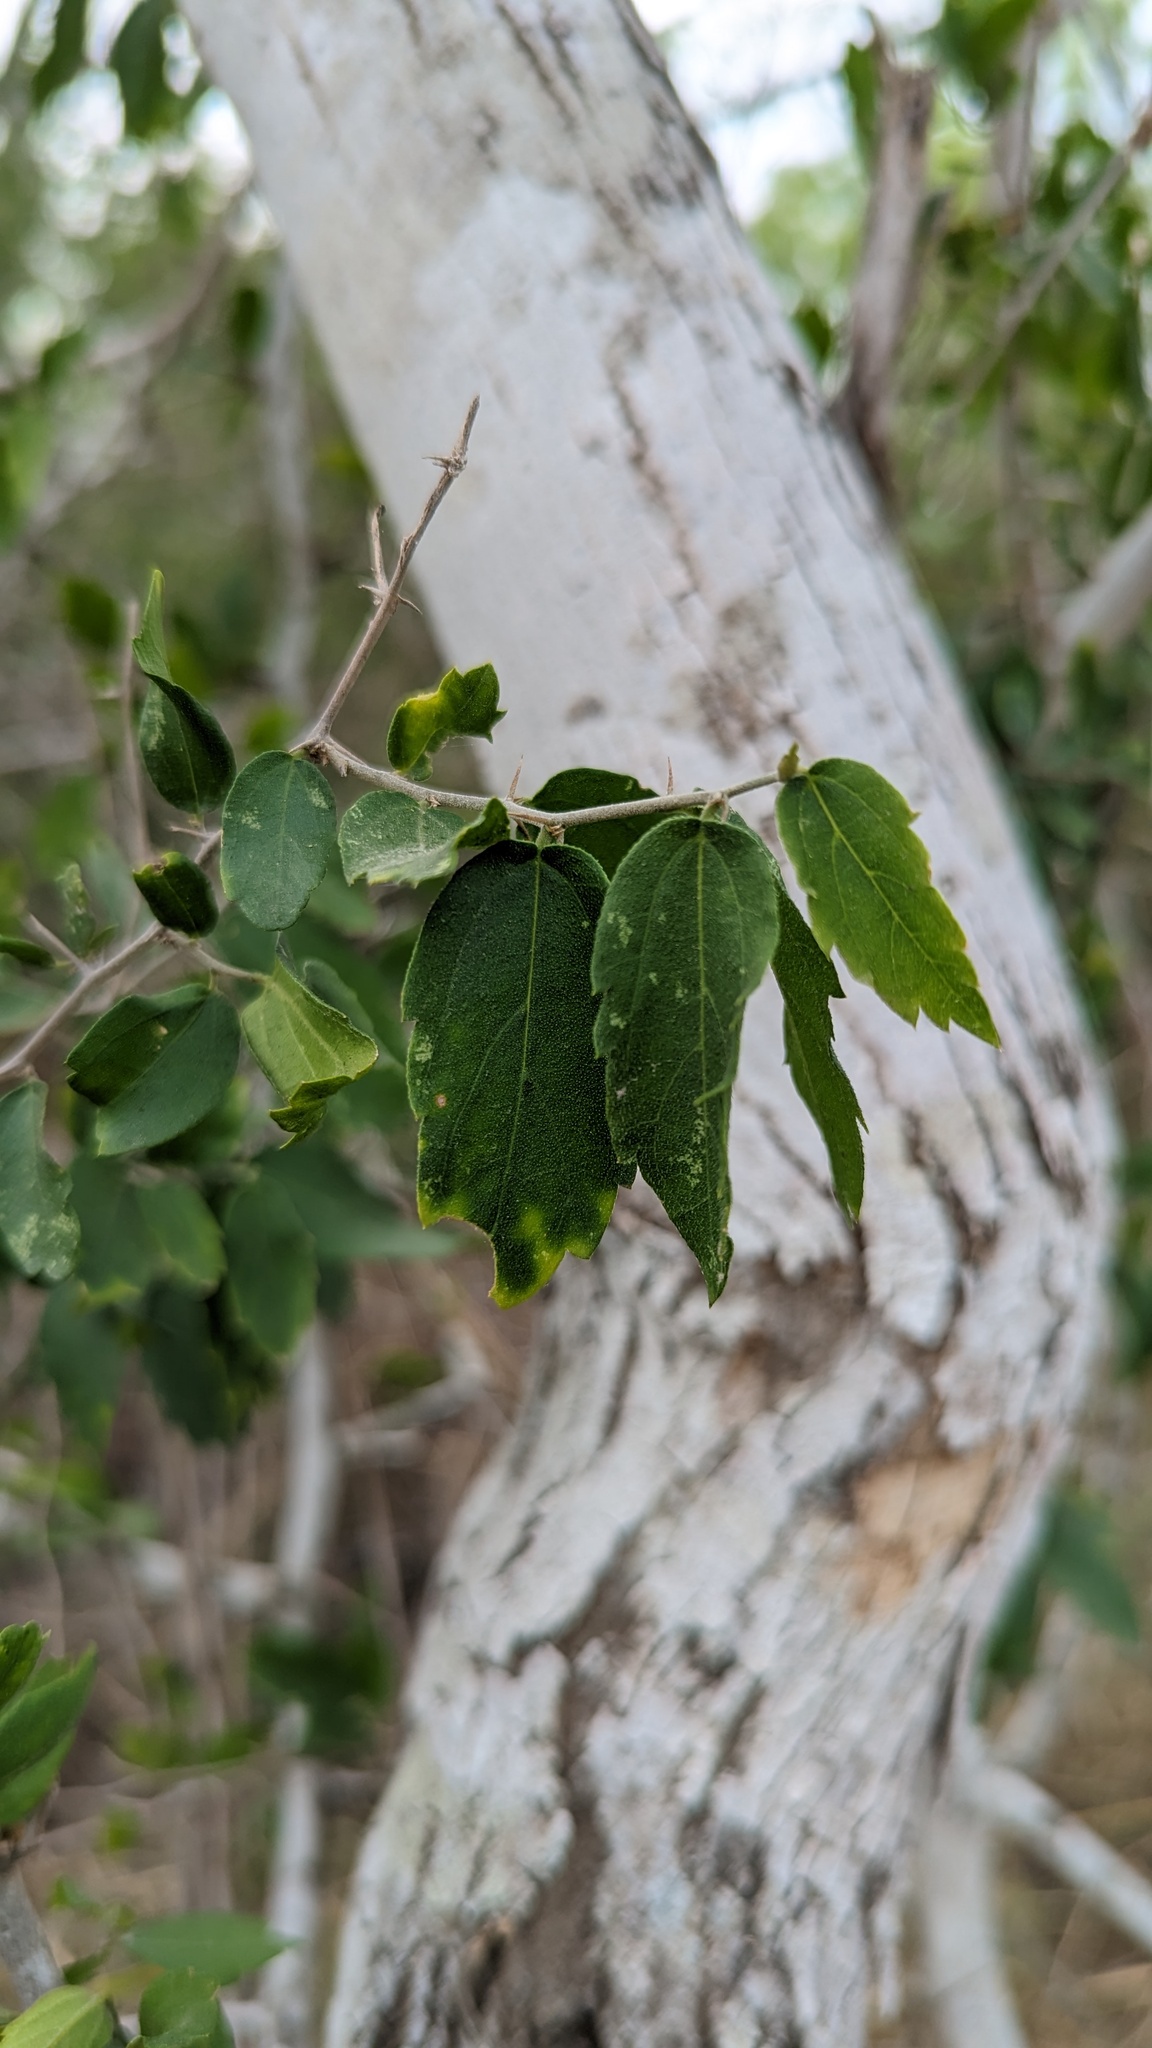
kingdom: Plantae
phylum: Tracheophyta
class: Magnoliopsida
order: Rosales
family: Cannabaceae
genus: Celtis
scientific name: Celtis pallida
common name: Desert hackberry
